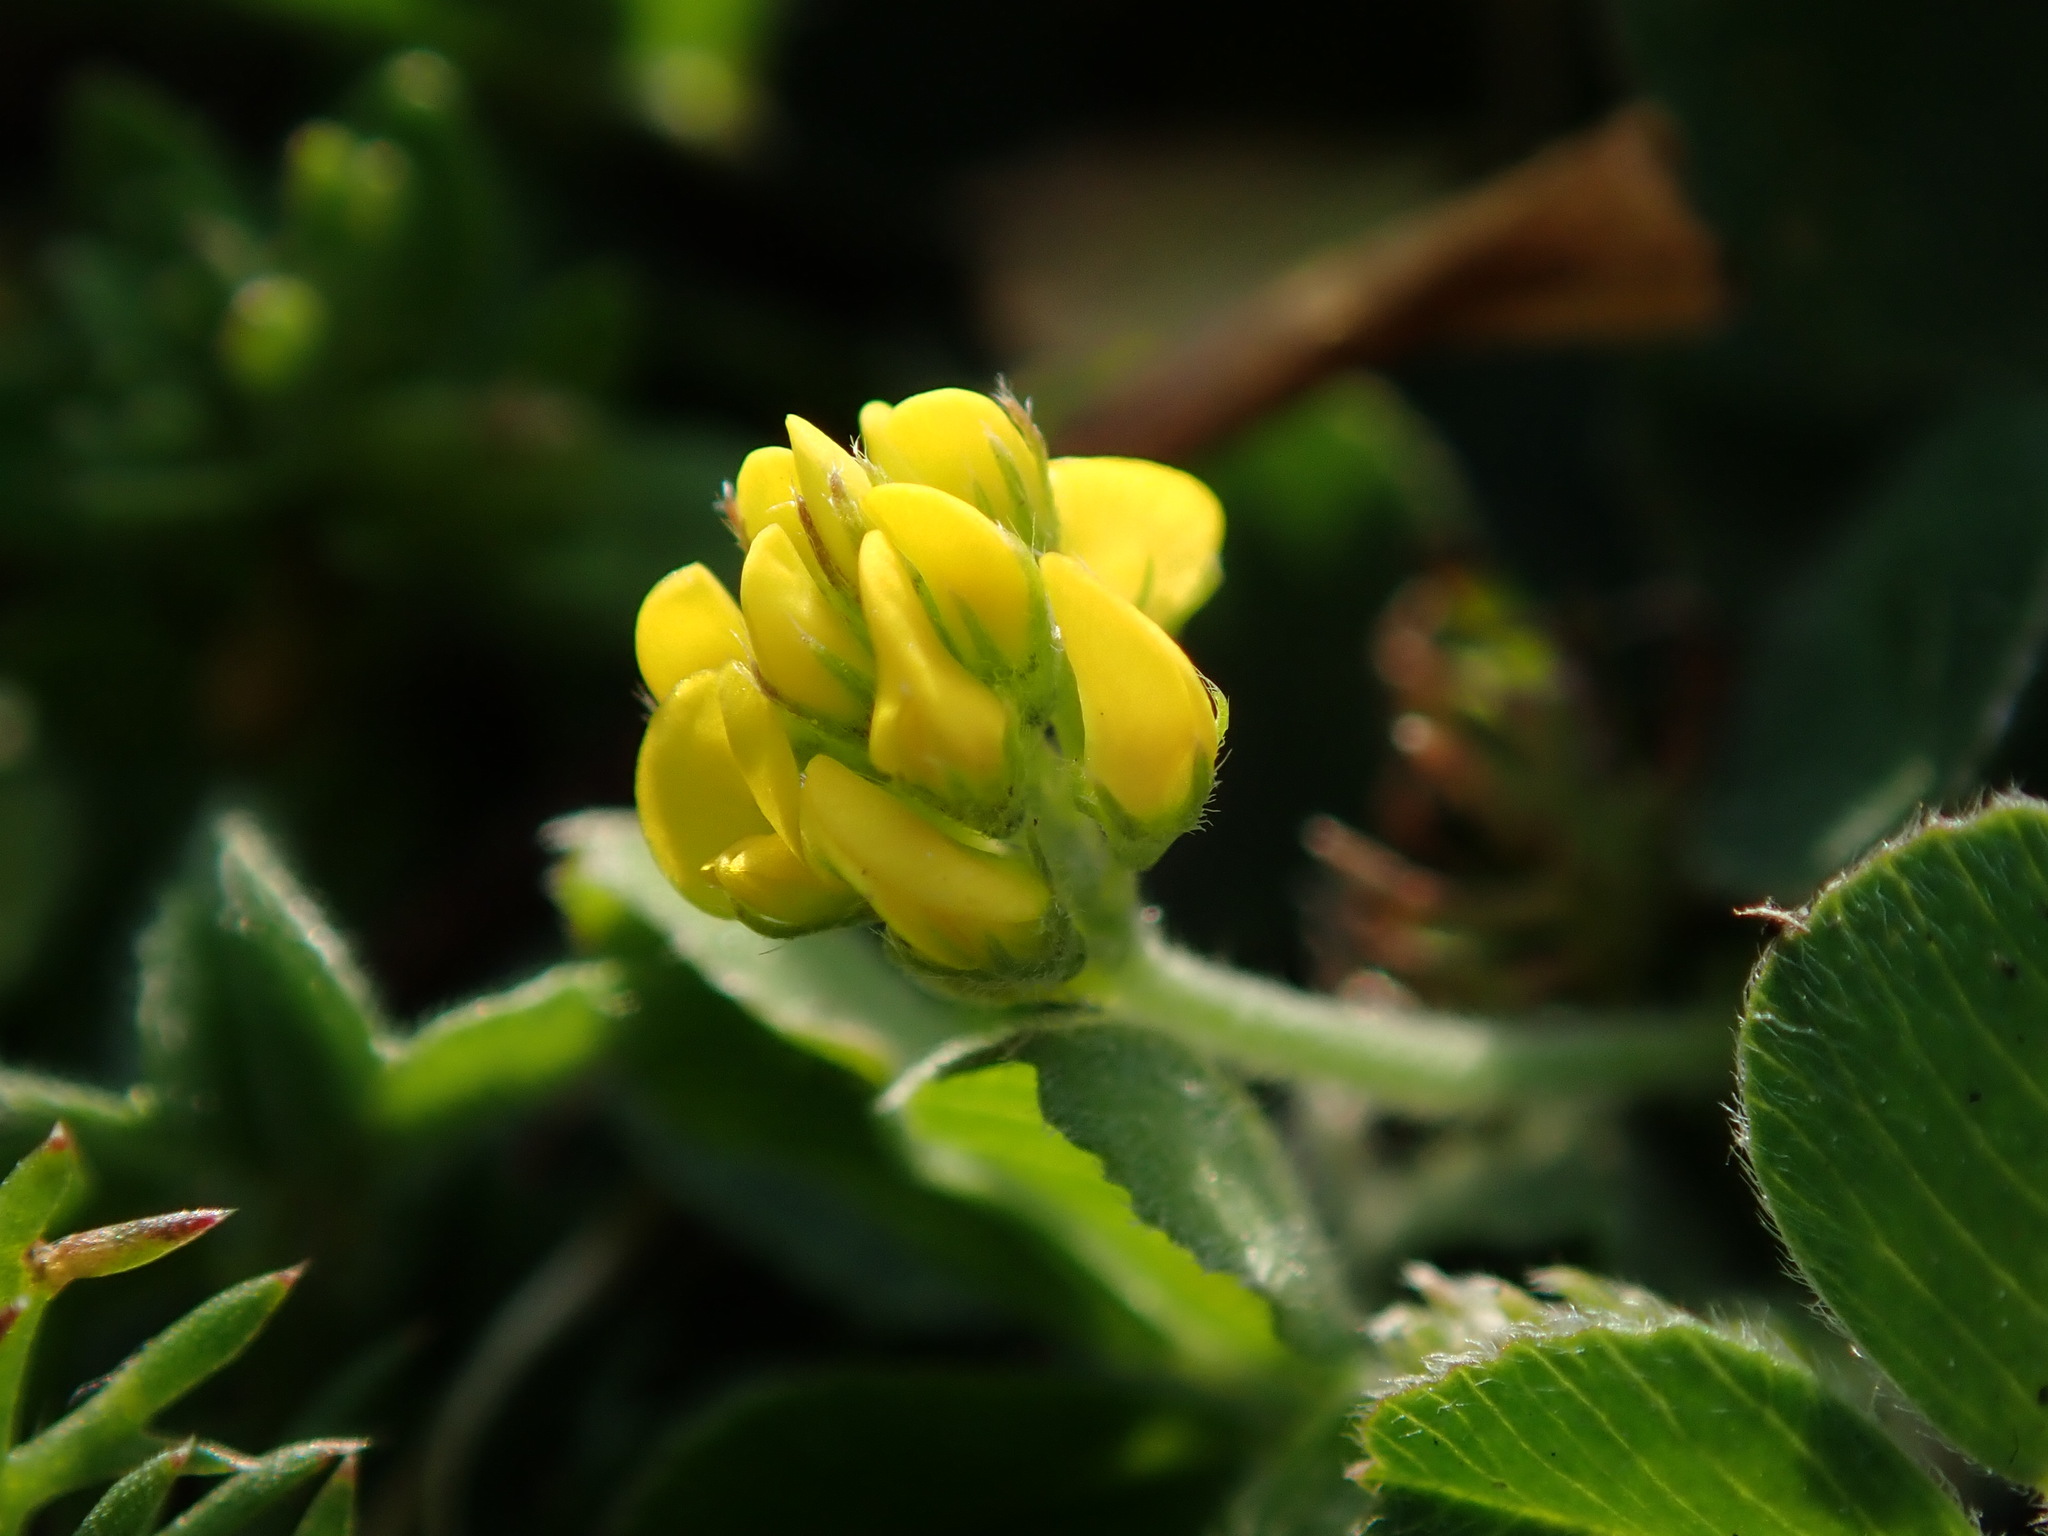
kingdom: Plantae
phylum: Tracheophyta
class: Magnoliopsida
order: Fabales
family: Fabaceae
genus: Medicago
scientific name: Medicago lupulina
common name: Black medick
